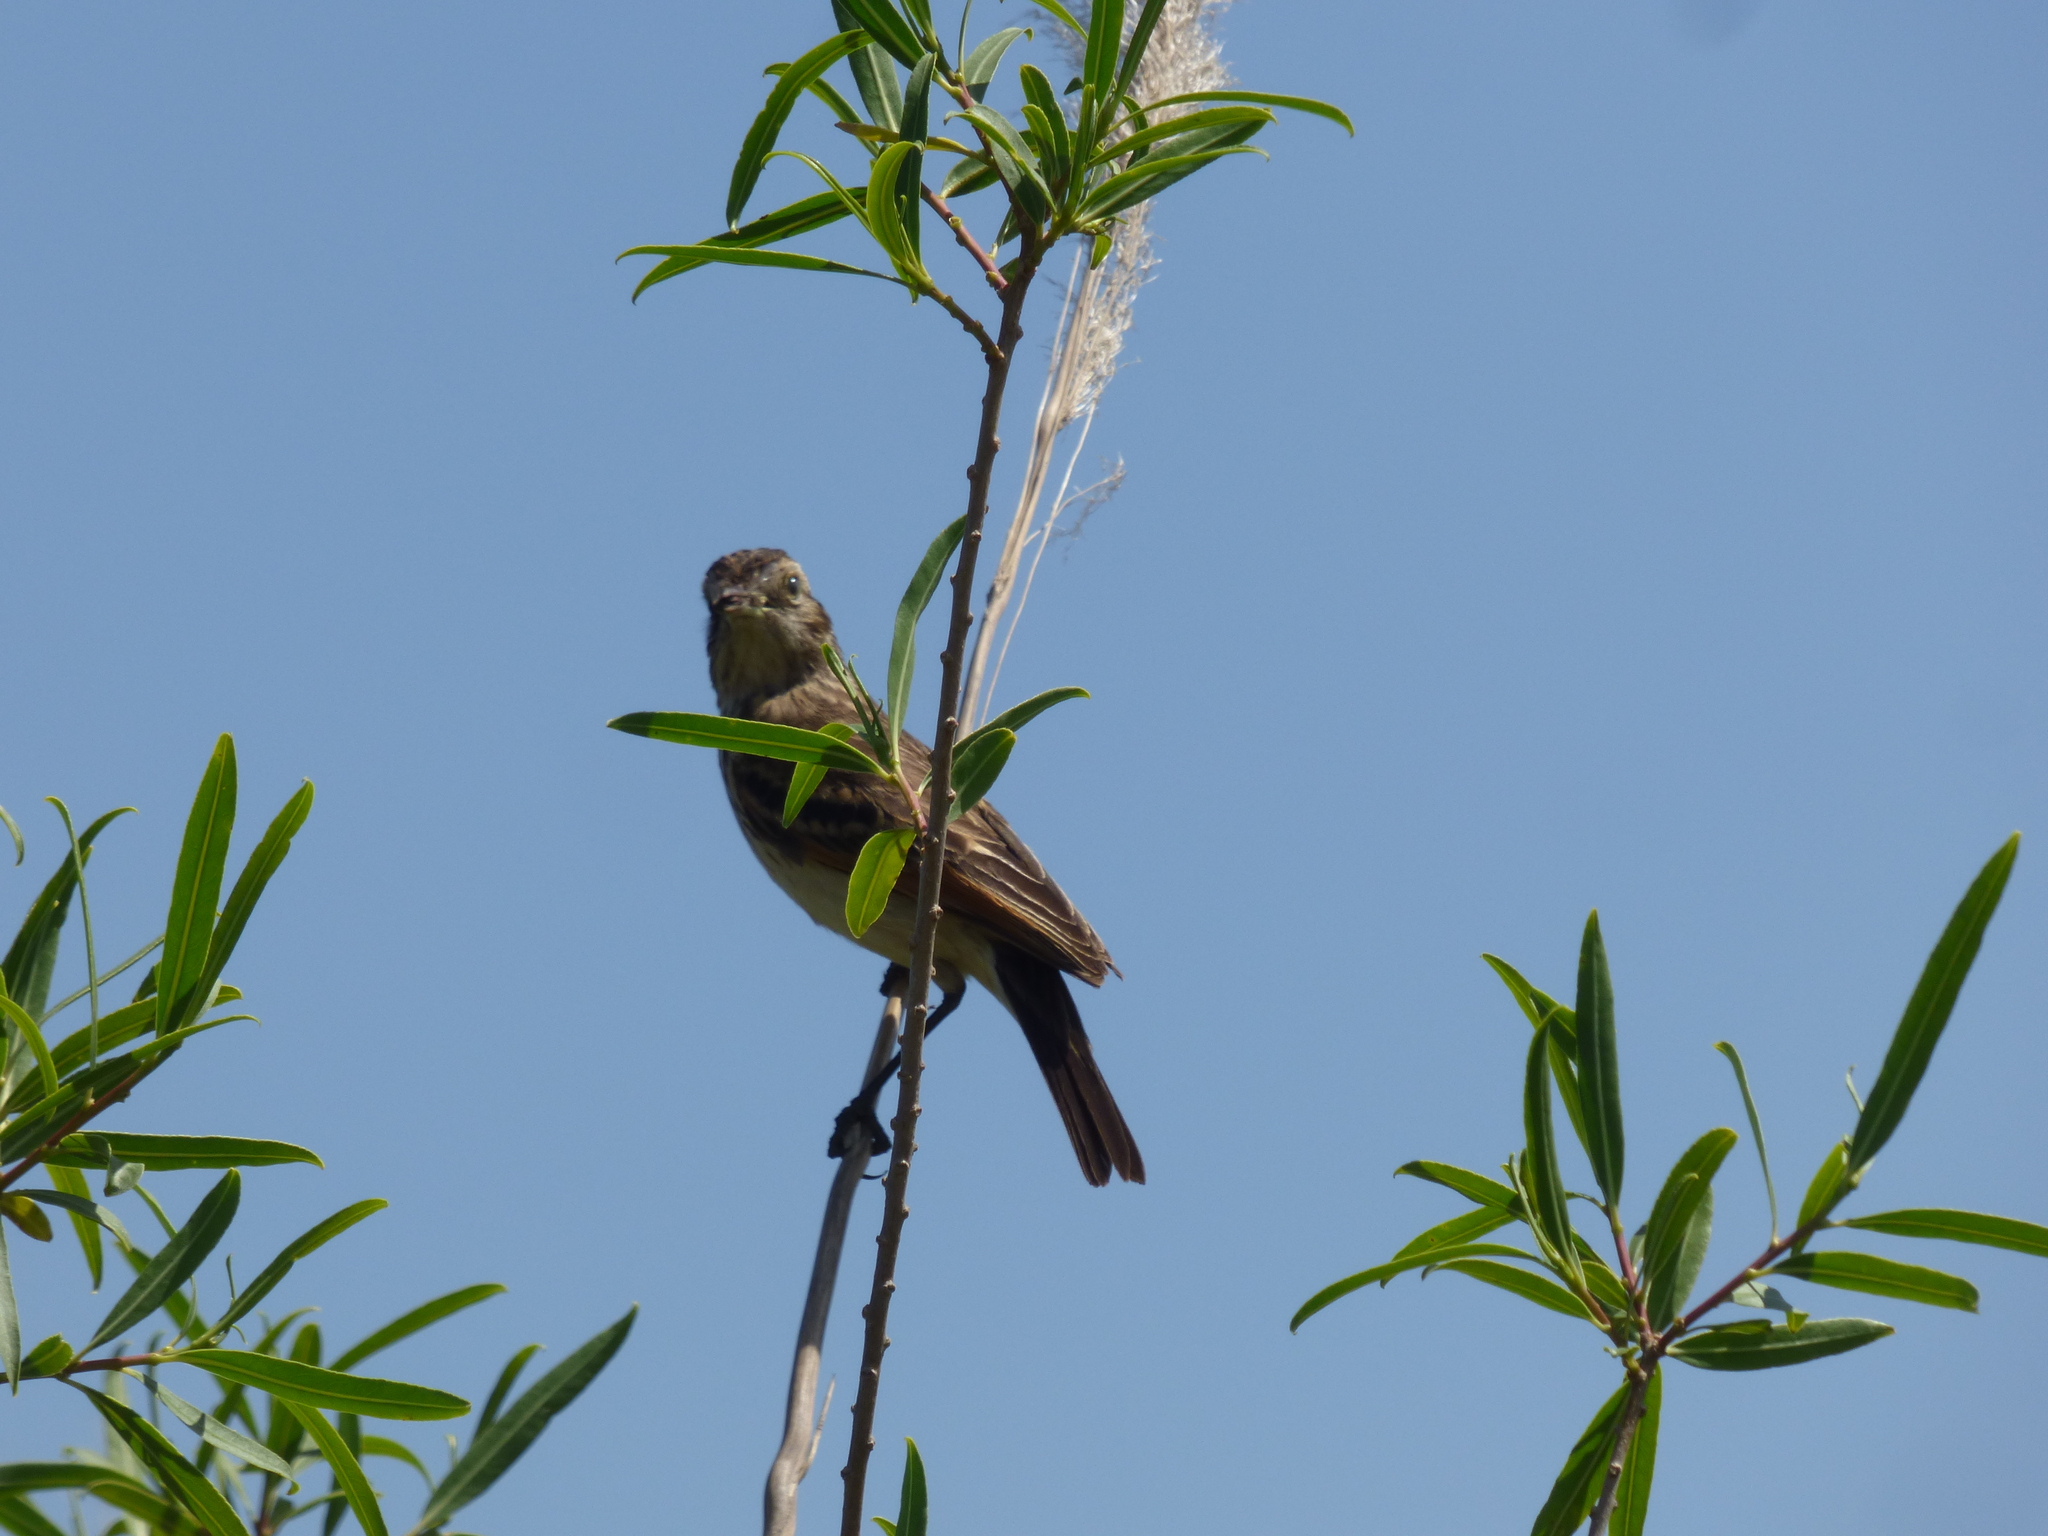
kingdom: Animalia
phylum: Chordata
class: Aves
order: Passeriformes
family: Tyrannidae
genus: Hymenops
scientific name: Hymenops perspicillatus
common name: Spectacled tyrant
